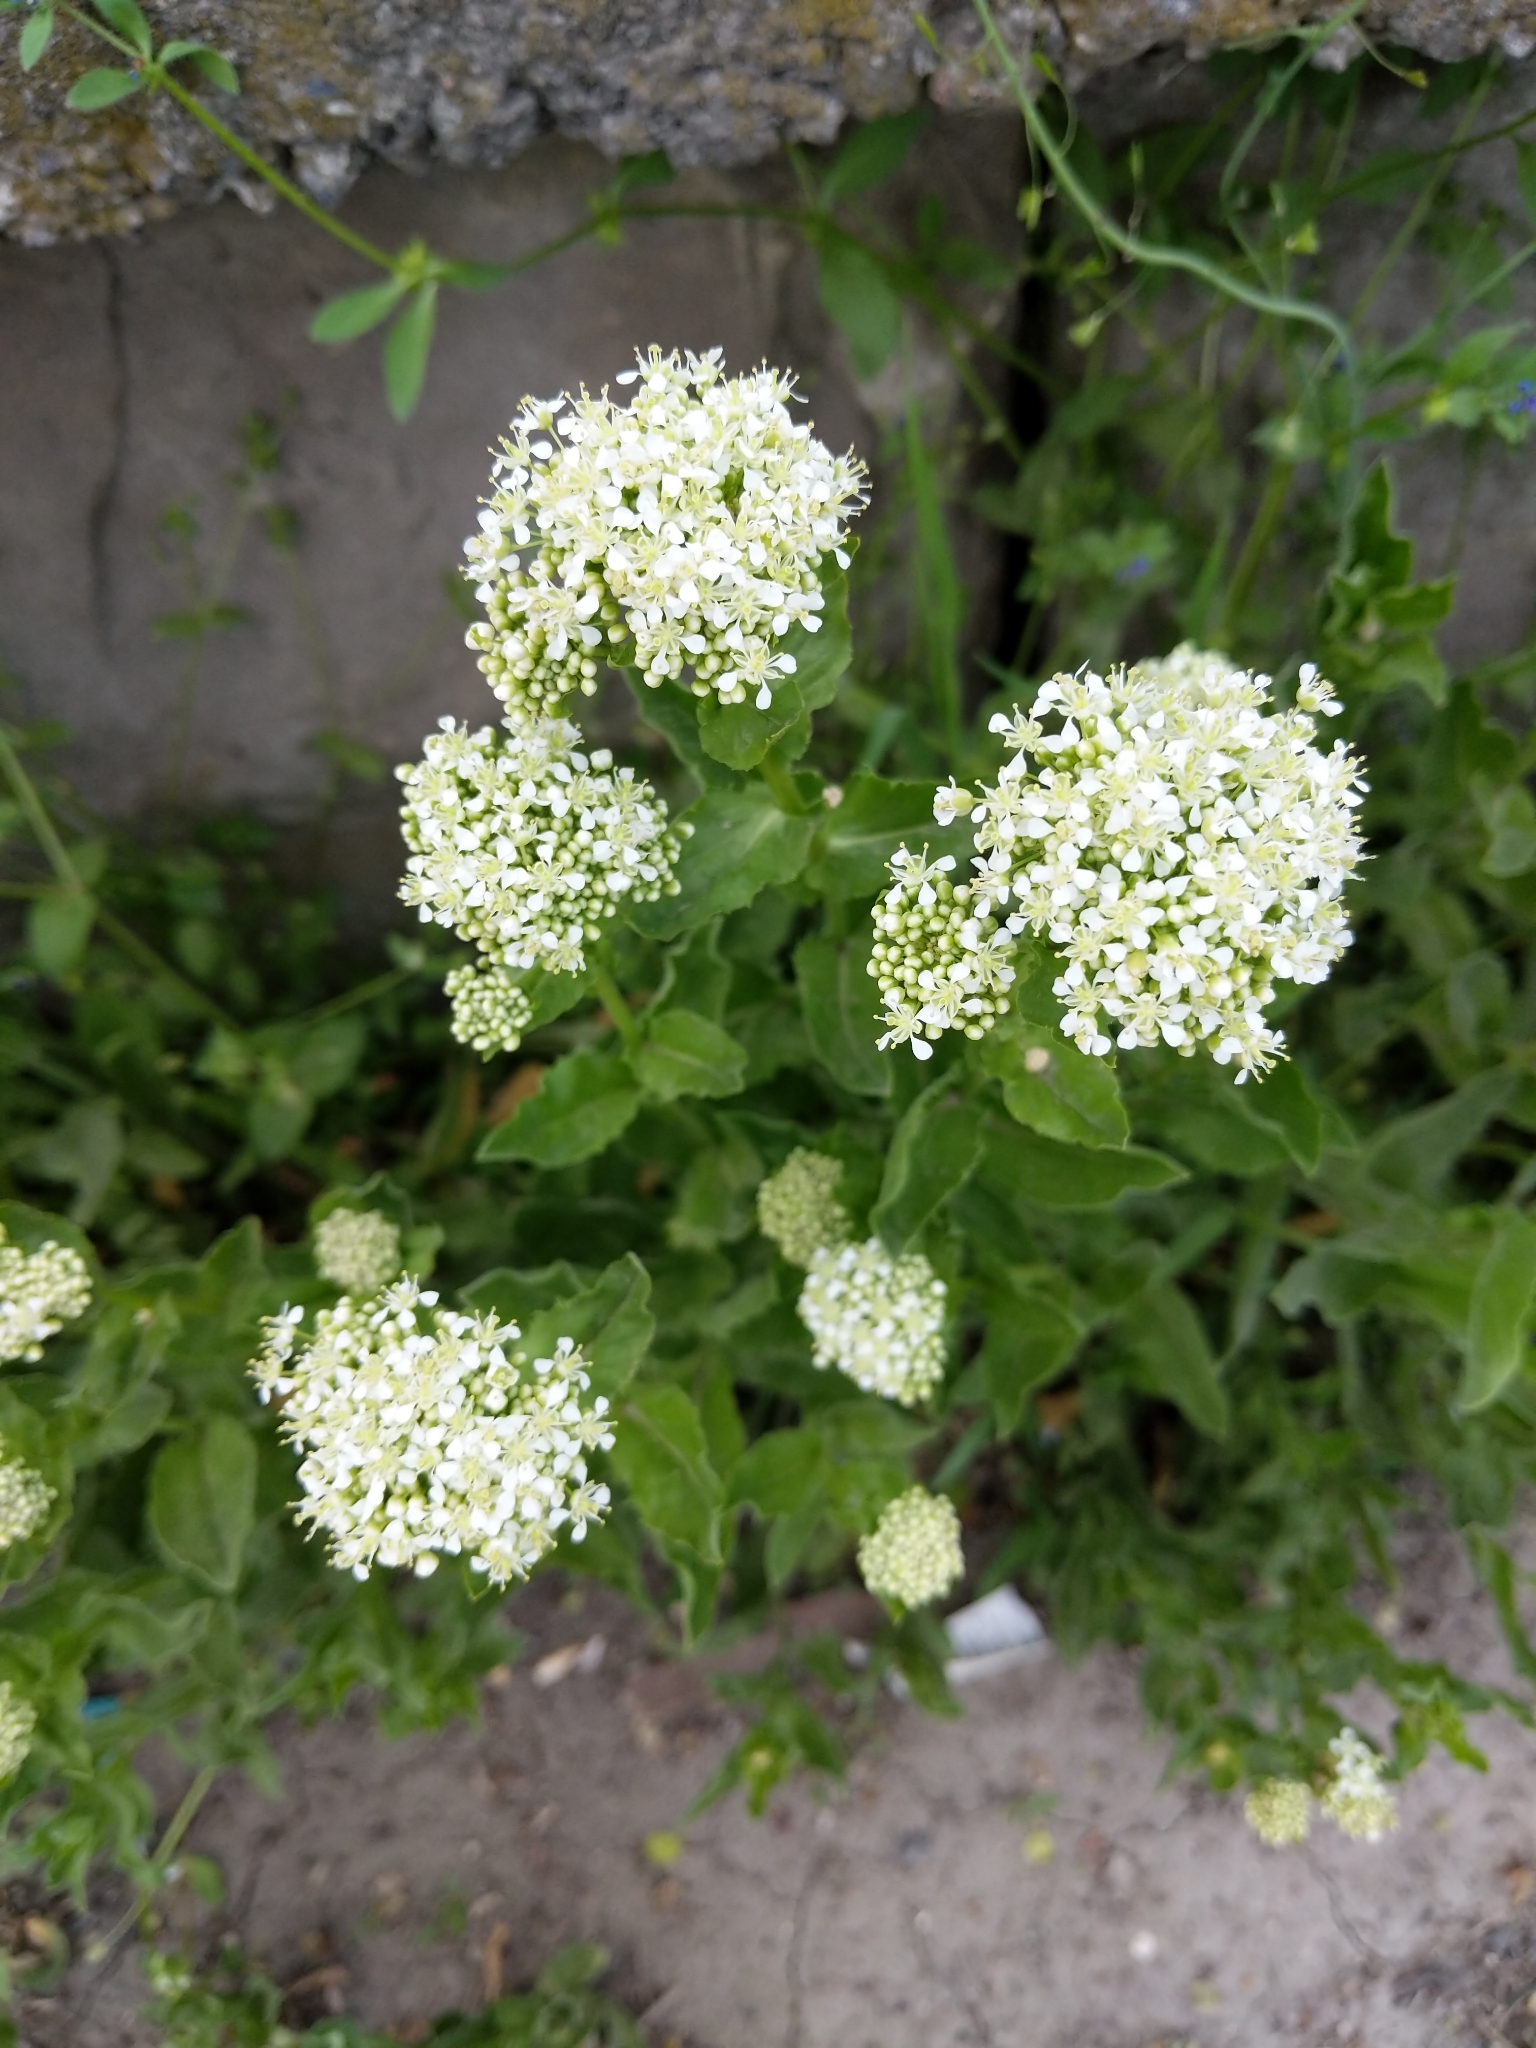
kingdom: Plantae
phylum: Tracheophyta
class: Magnoliopsida
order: Brassicales
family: Brassicaceae
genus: Lepidium
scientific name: Lepidium draba
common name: Hoary cress
